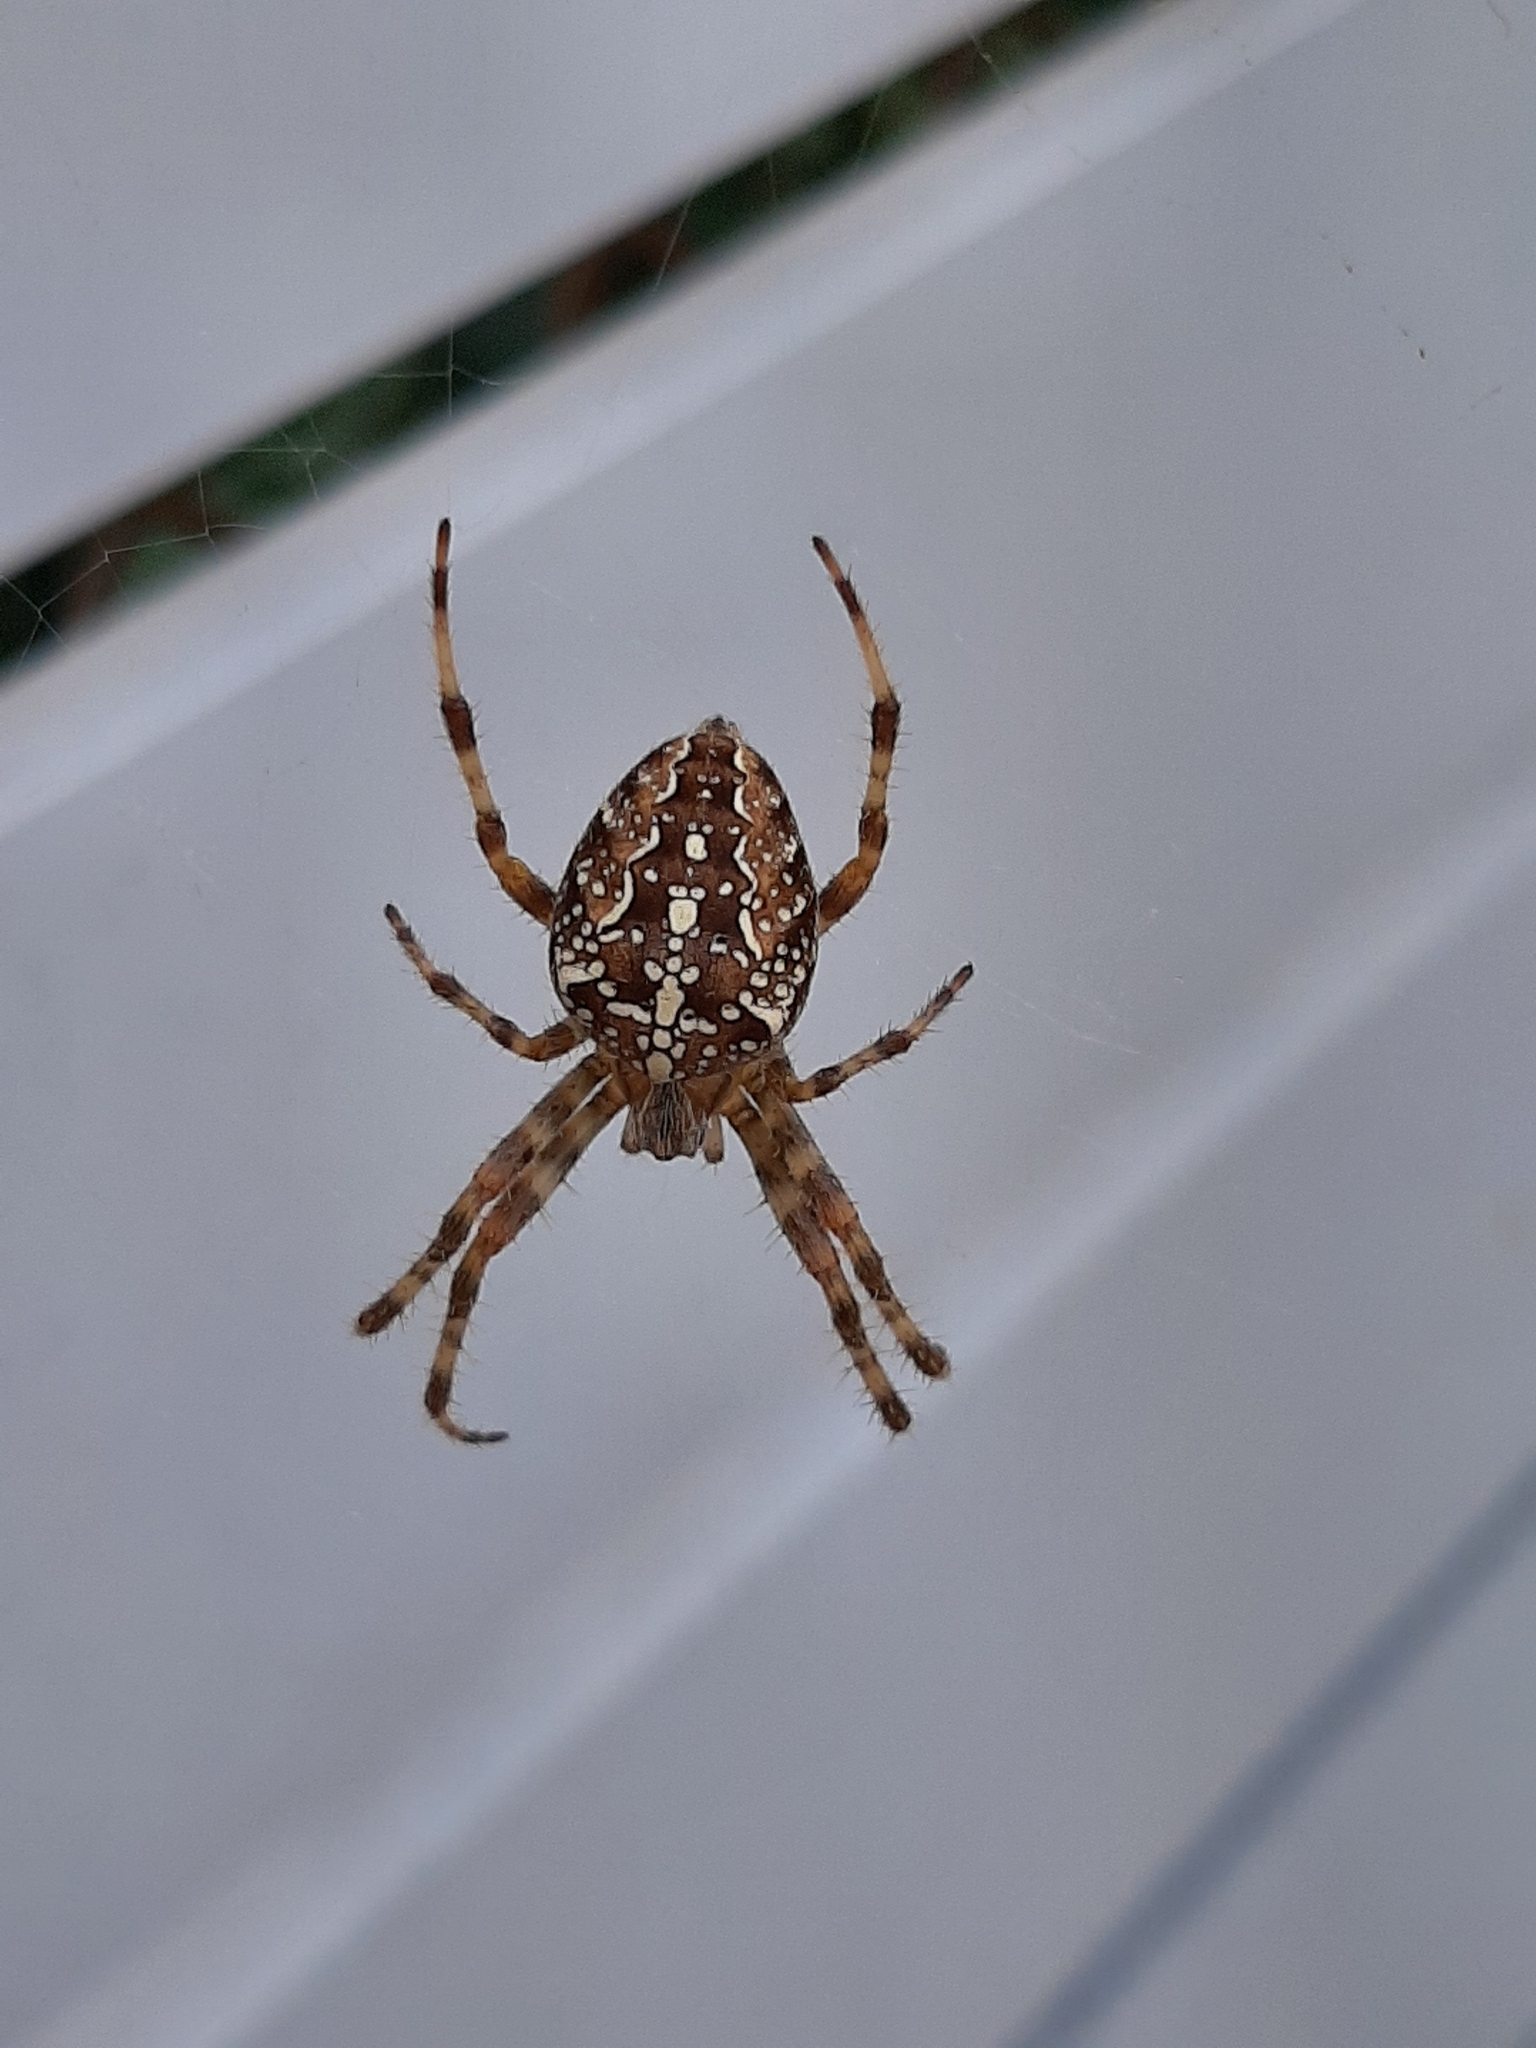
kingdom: Animalia
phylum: Arthropoda
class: Arachnida
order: Araneae
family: Araneidae
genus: Araneus
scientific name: Araneus diadematus
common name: Cross orbweaver
